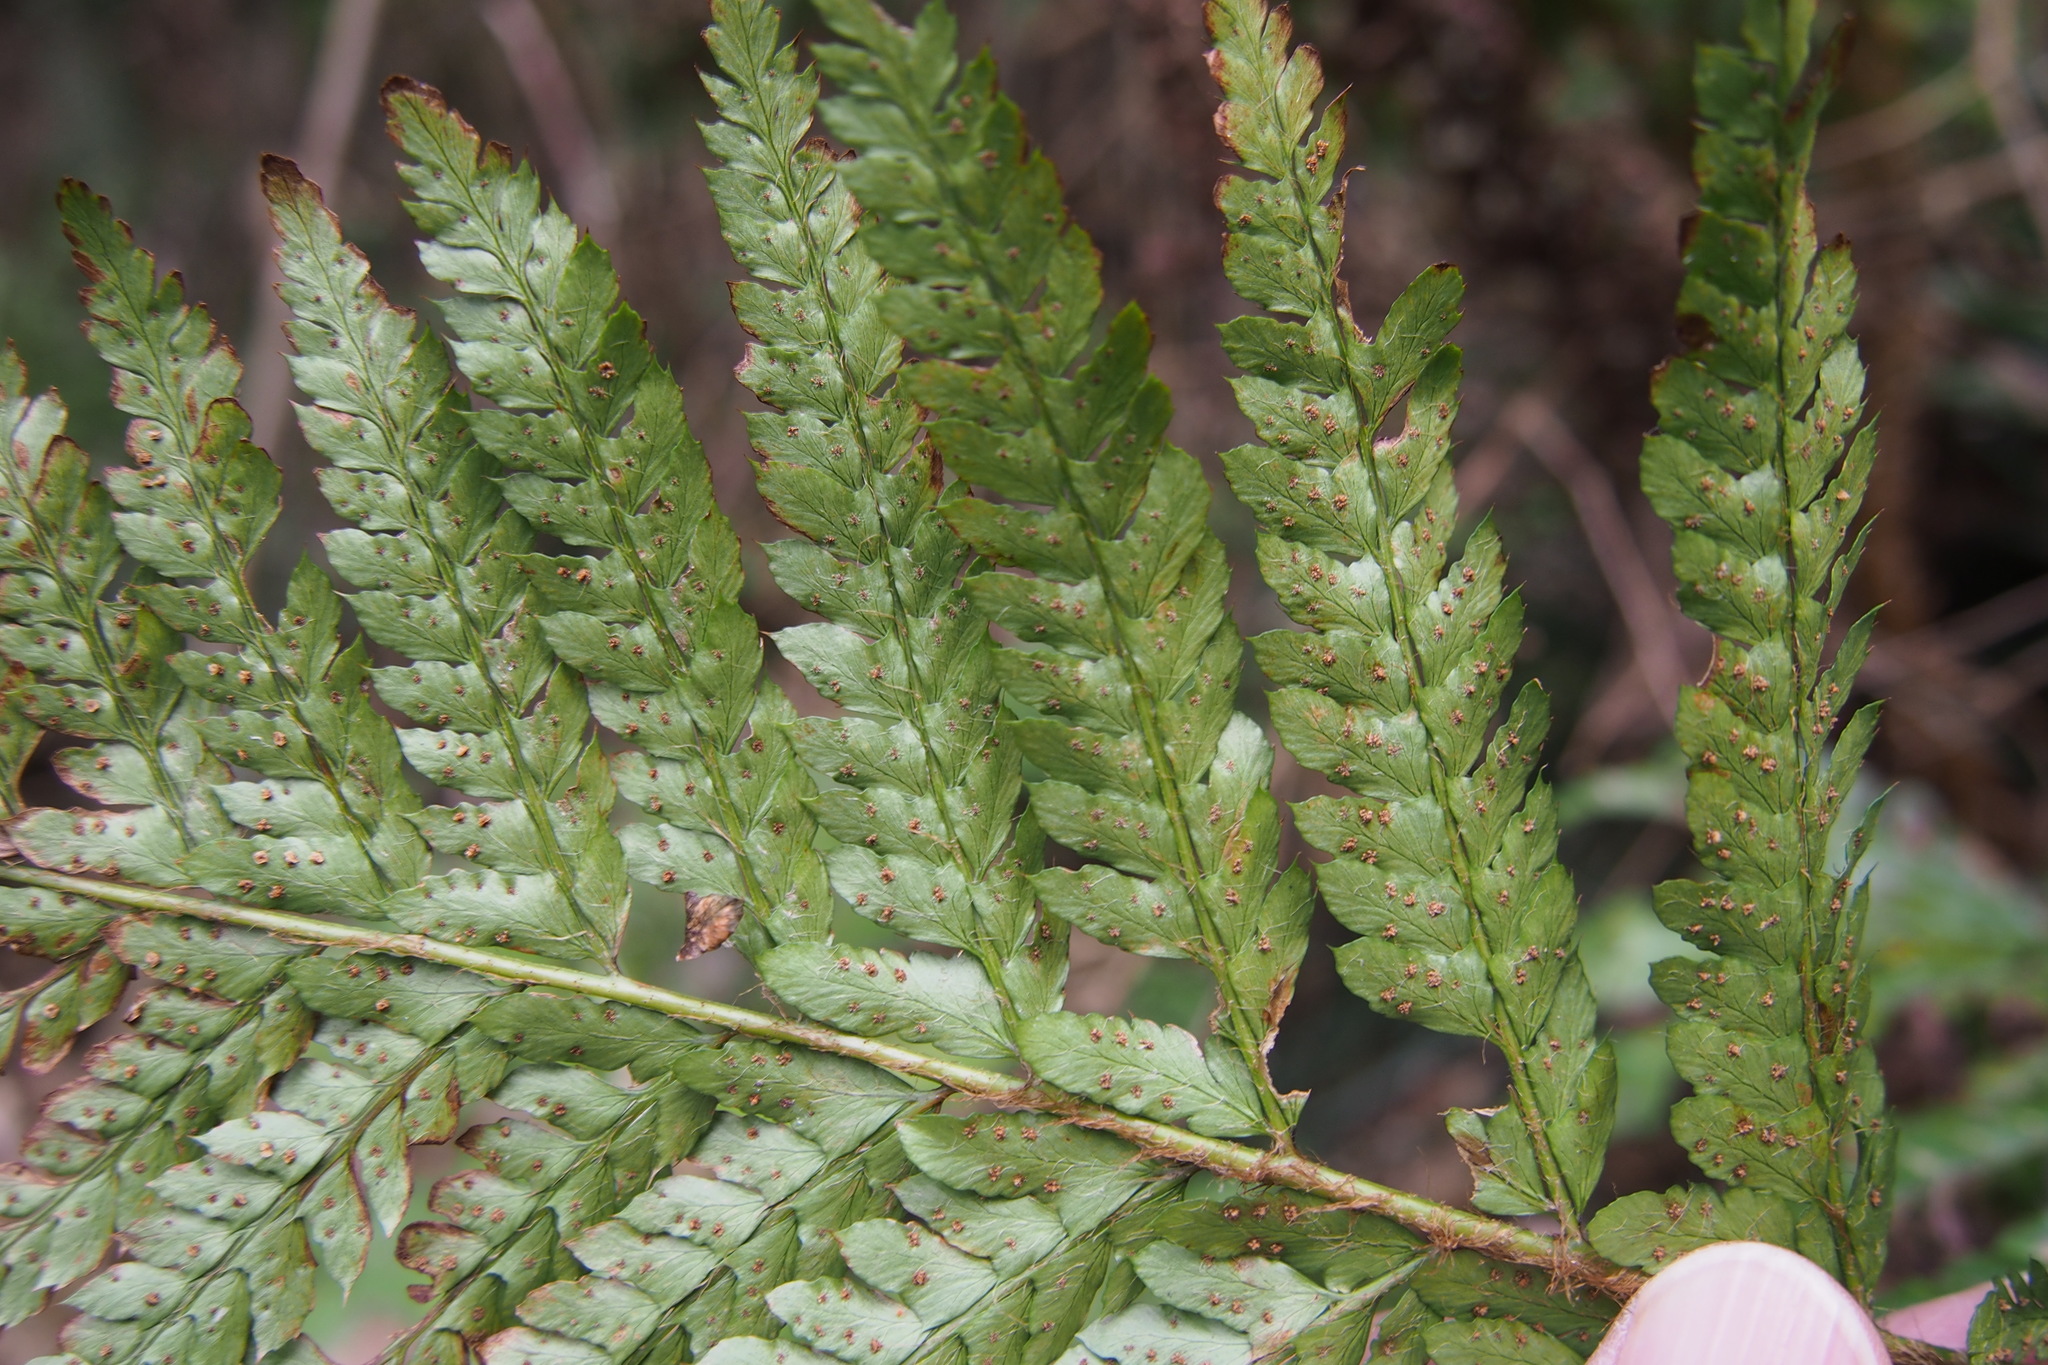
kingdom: Plantae
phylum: Tracheophyta
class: Polypodiopsida
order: Polypodiales
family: Dryopteridaceae
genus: Polystichum
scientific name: Polystichum luctuosum
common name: Korean rockfern
